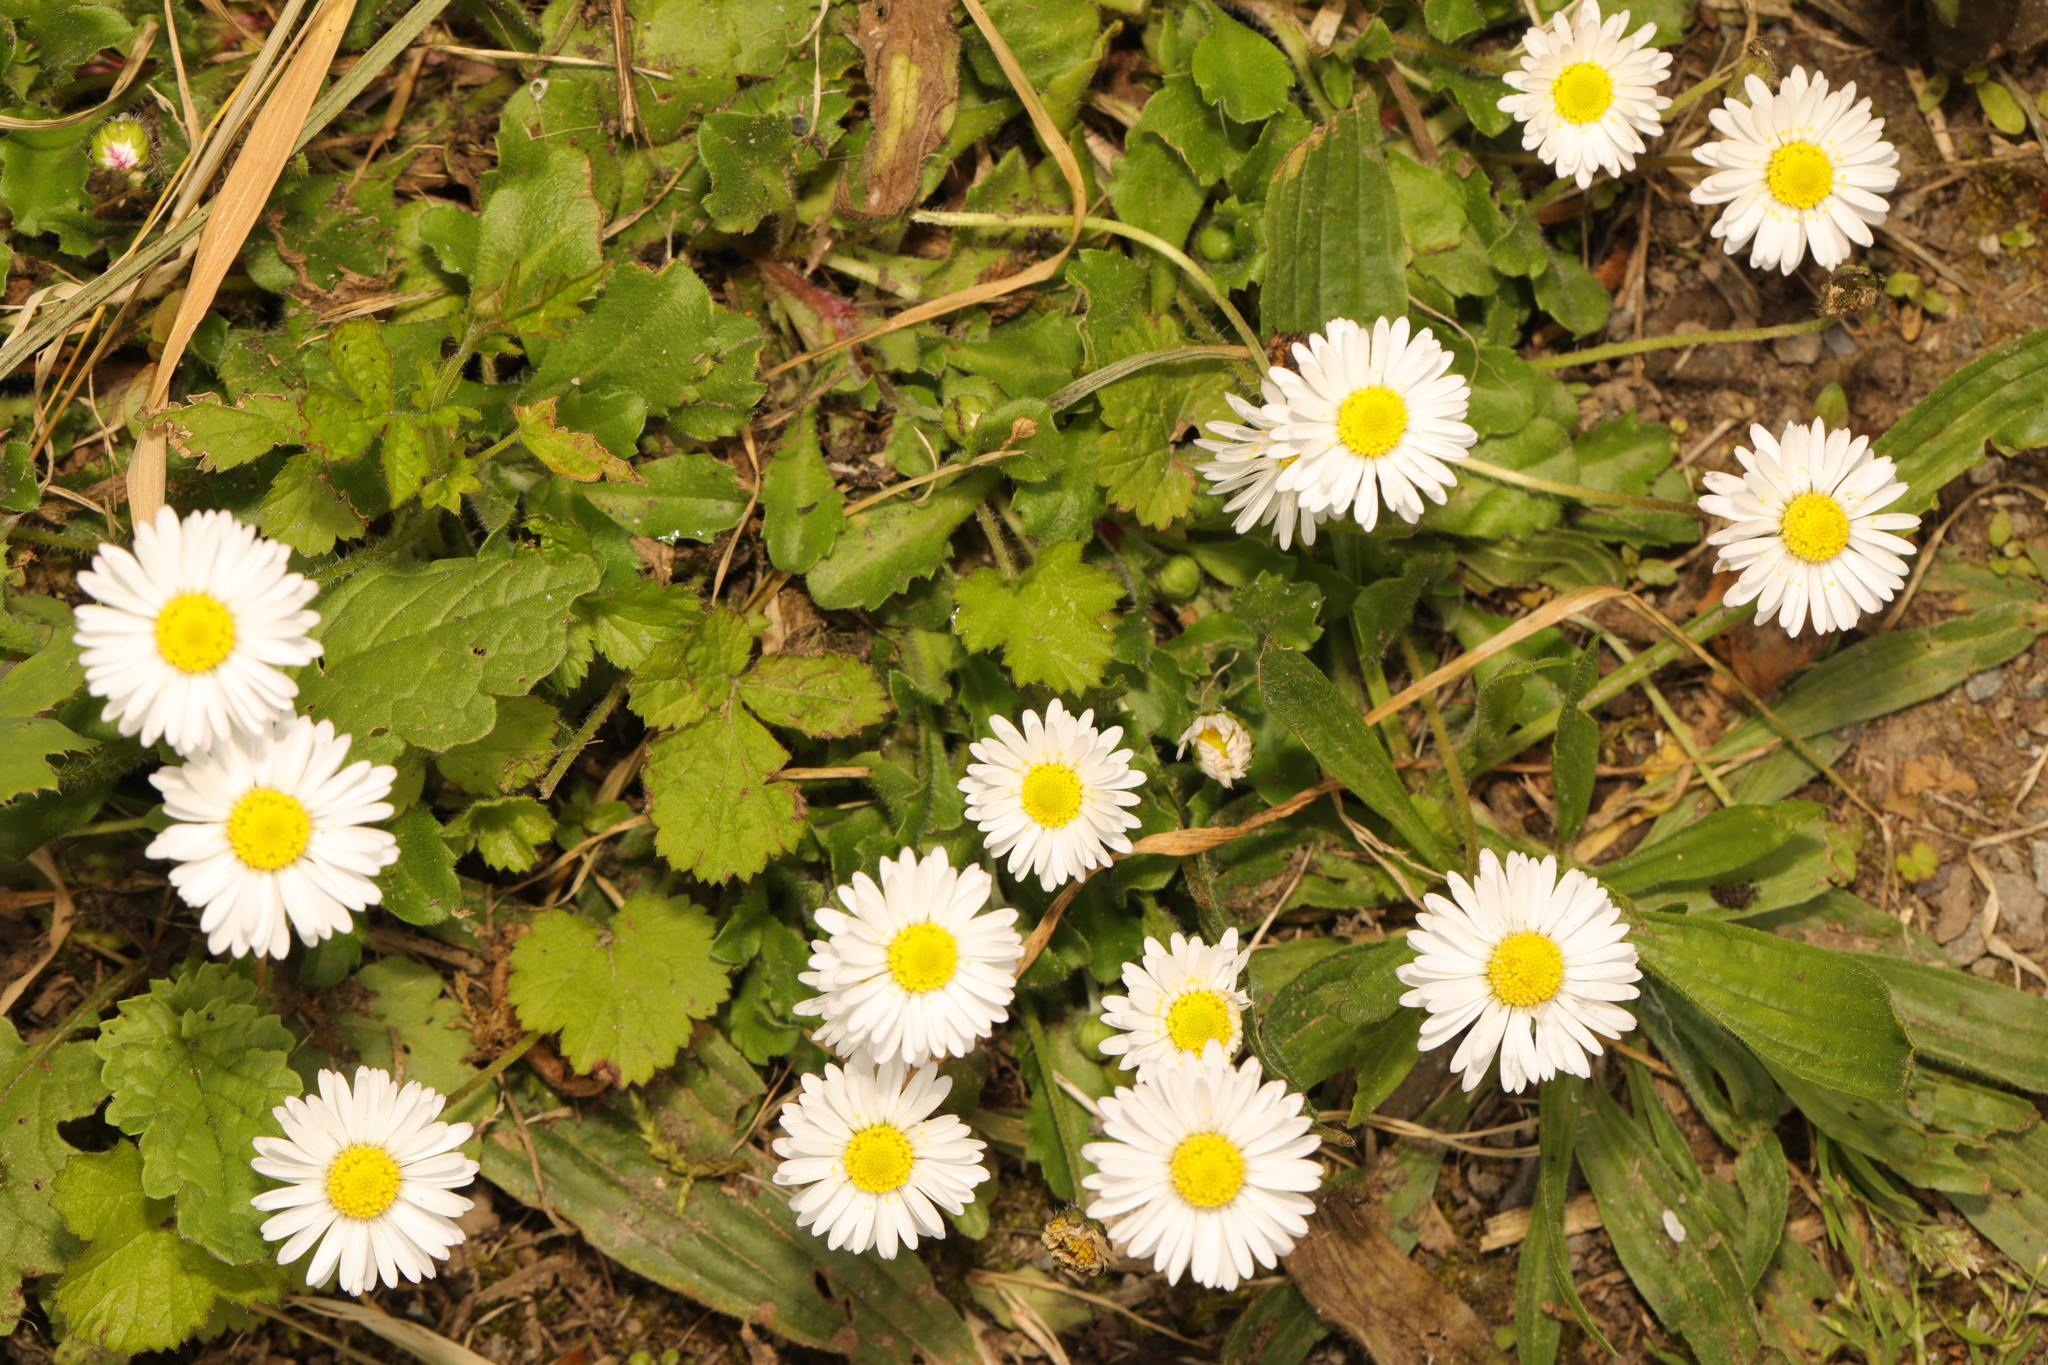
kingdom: Plantae
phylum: Tracheophyta
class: Magnoliopsida
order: Asterales
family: Asteraceae
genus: Bellis
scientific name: Bellis perennis
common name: Lawndaisy
